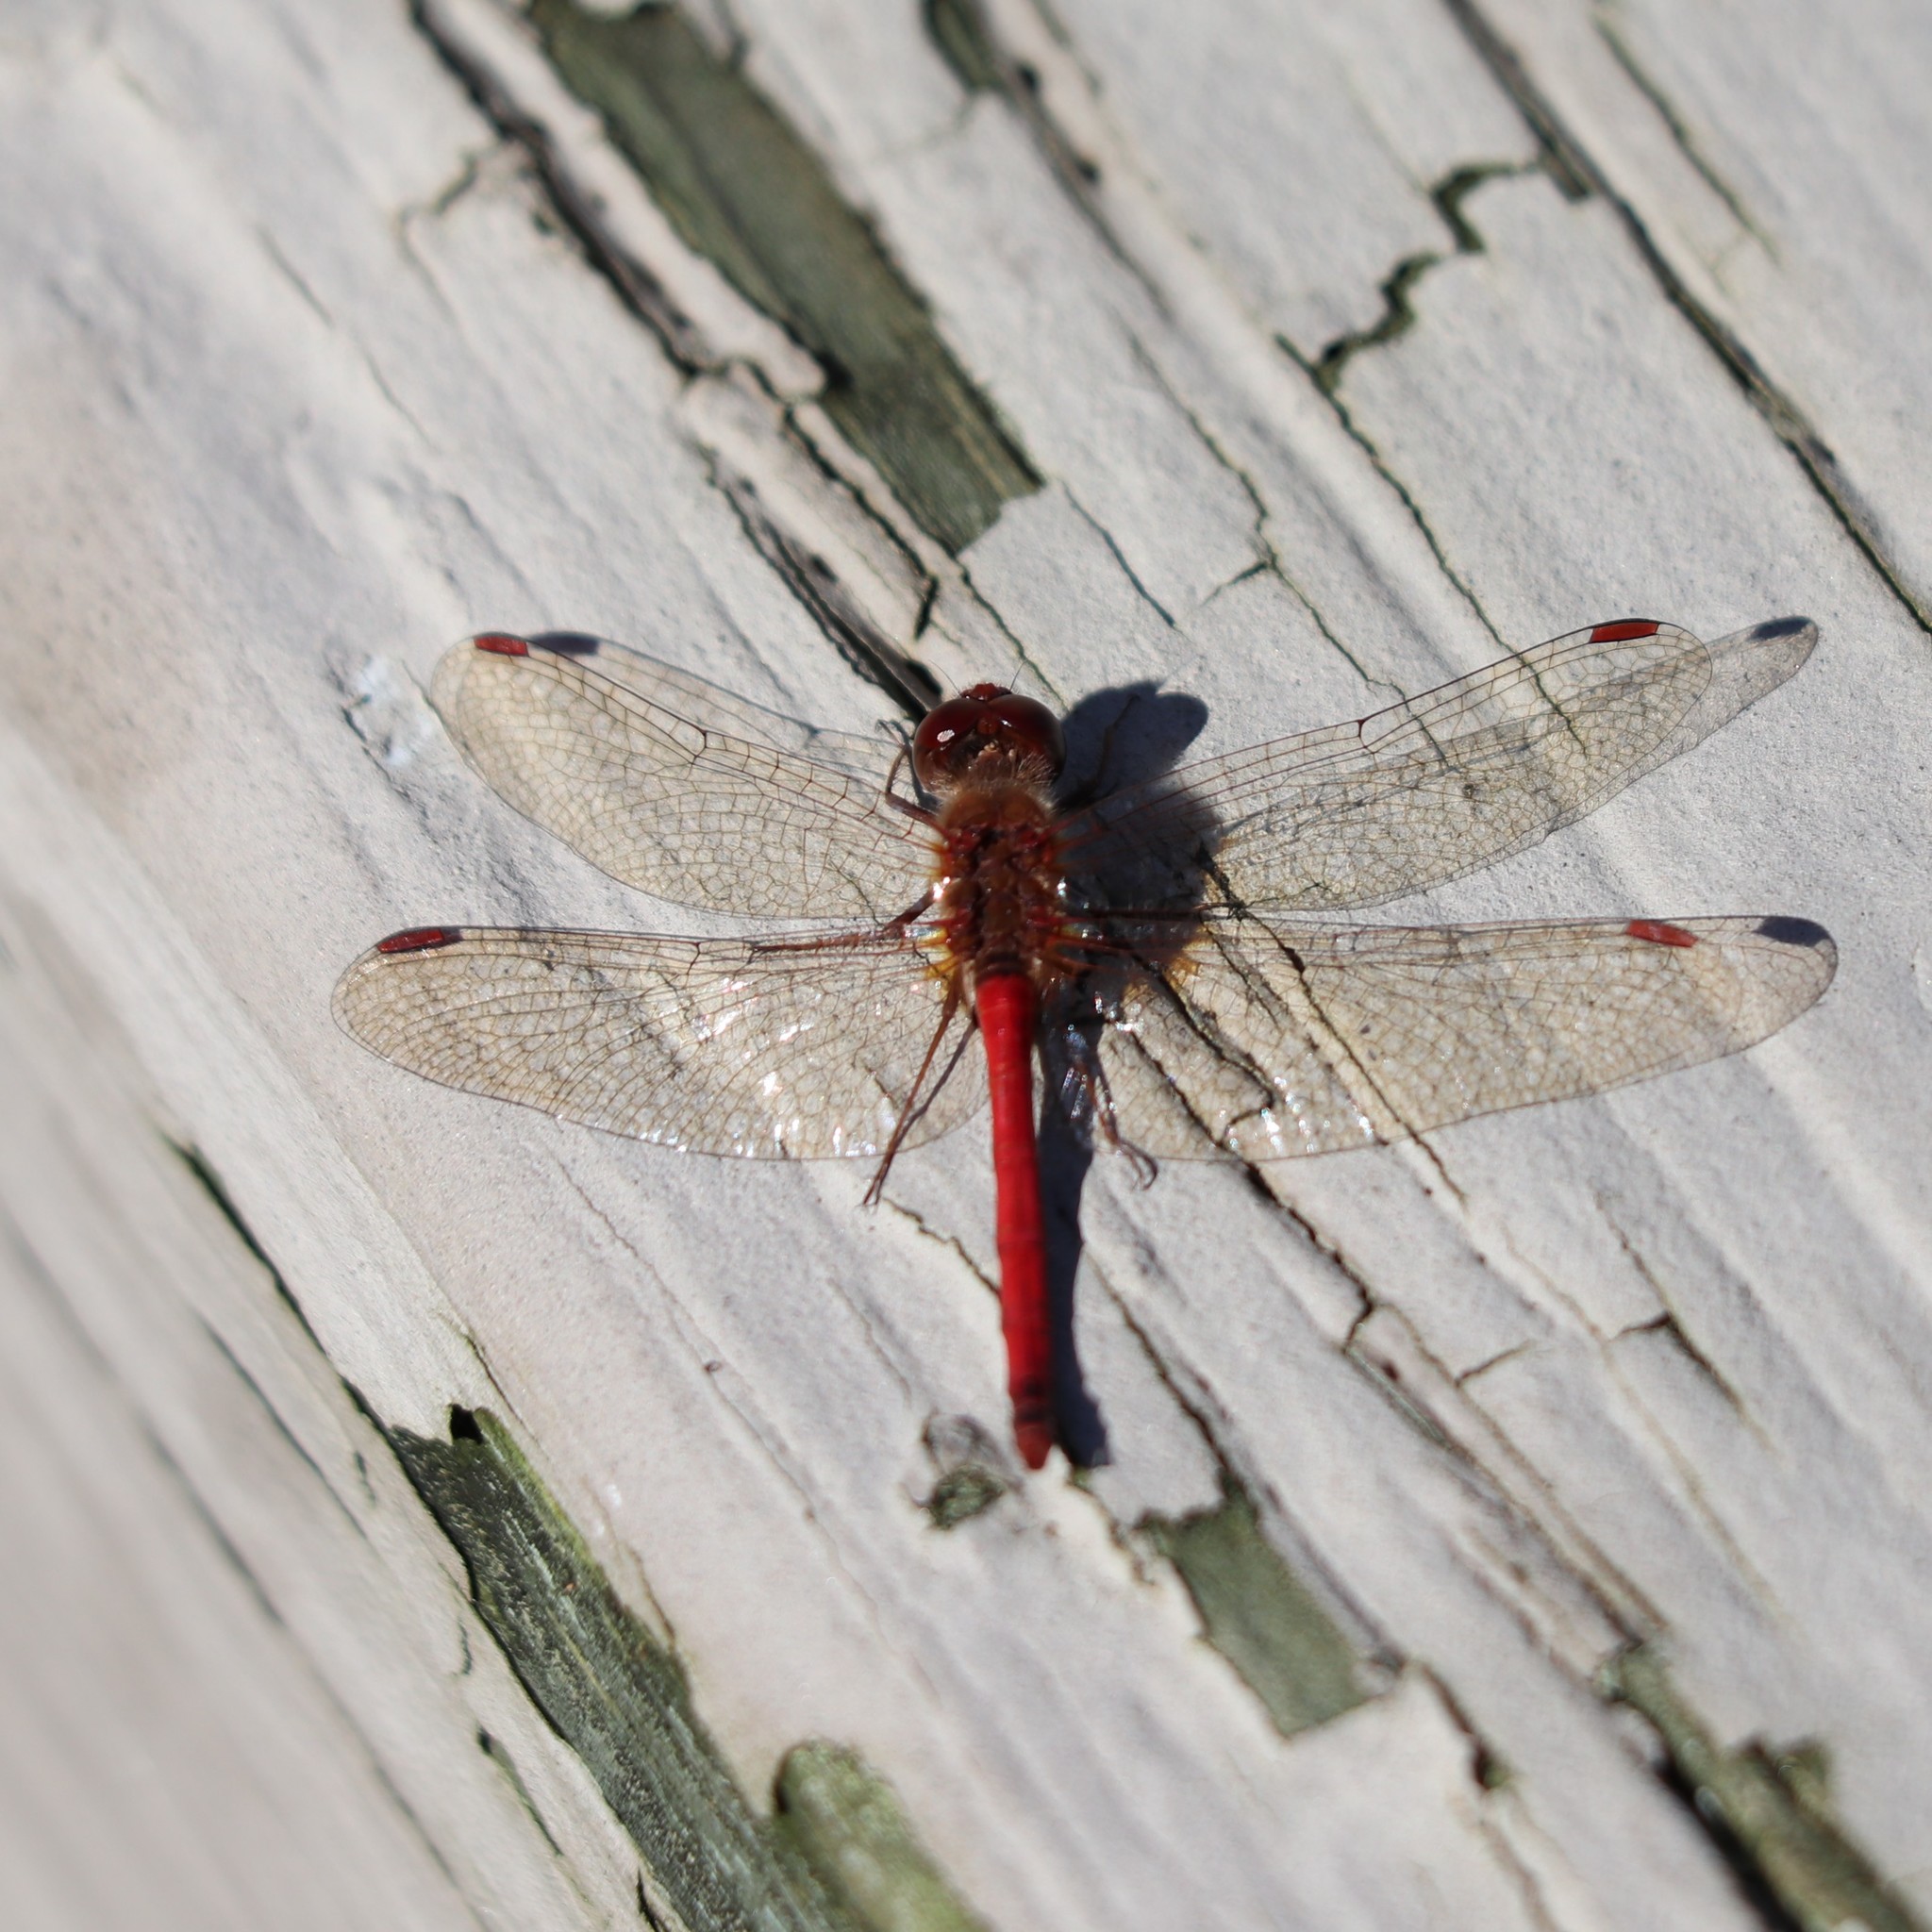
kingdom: Animalia
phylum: Arthropoda
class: Insecta
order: Odonata
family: Libellulidae
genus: Sympetrum
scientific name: Sympetrum vicinum
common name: Autumn meadowhawk
